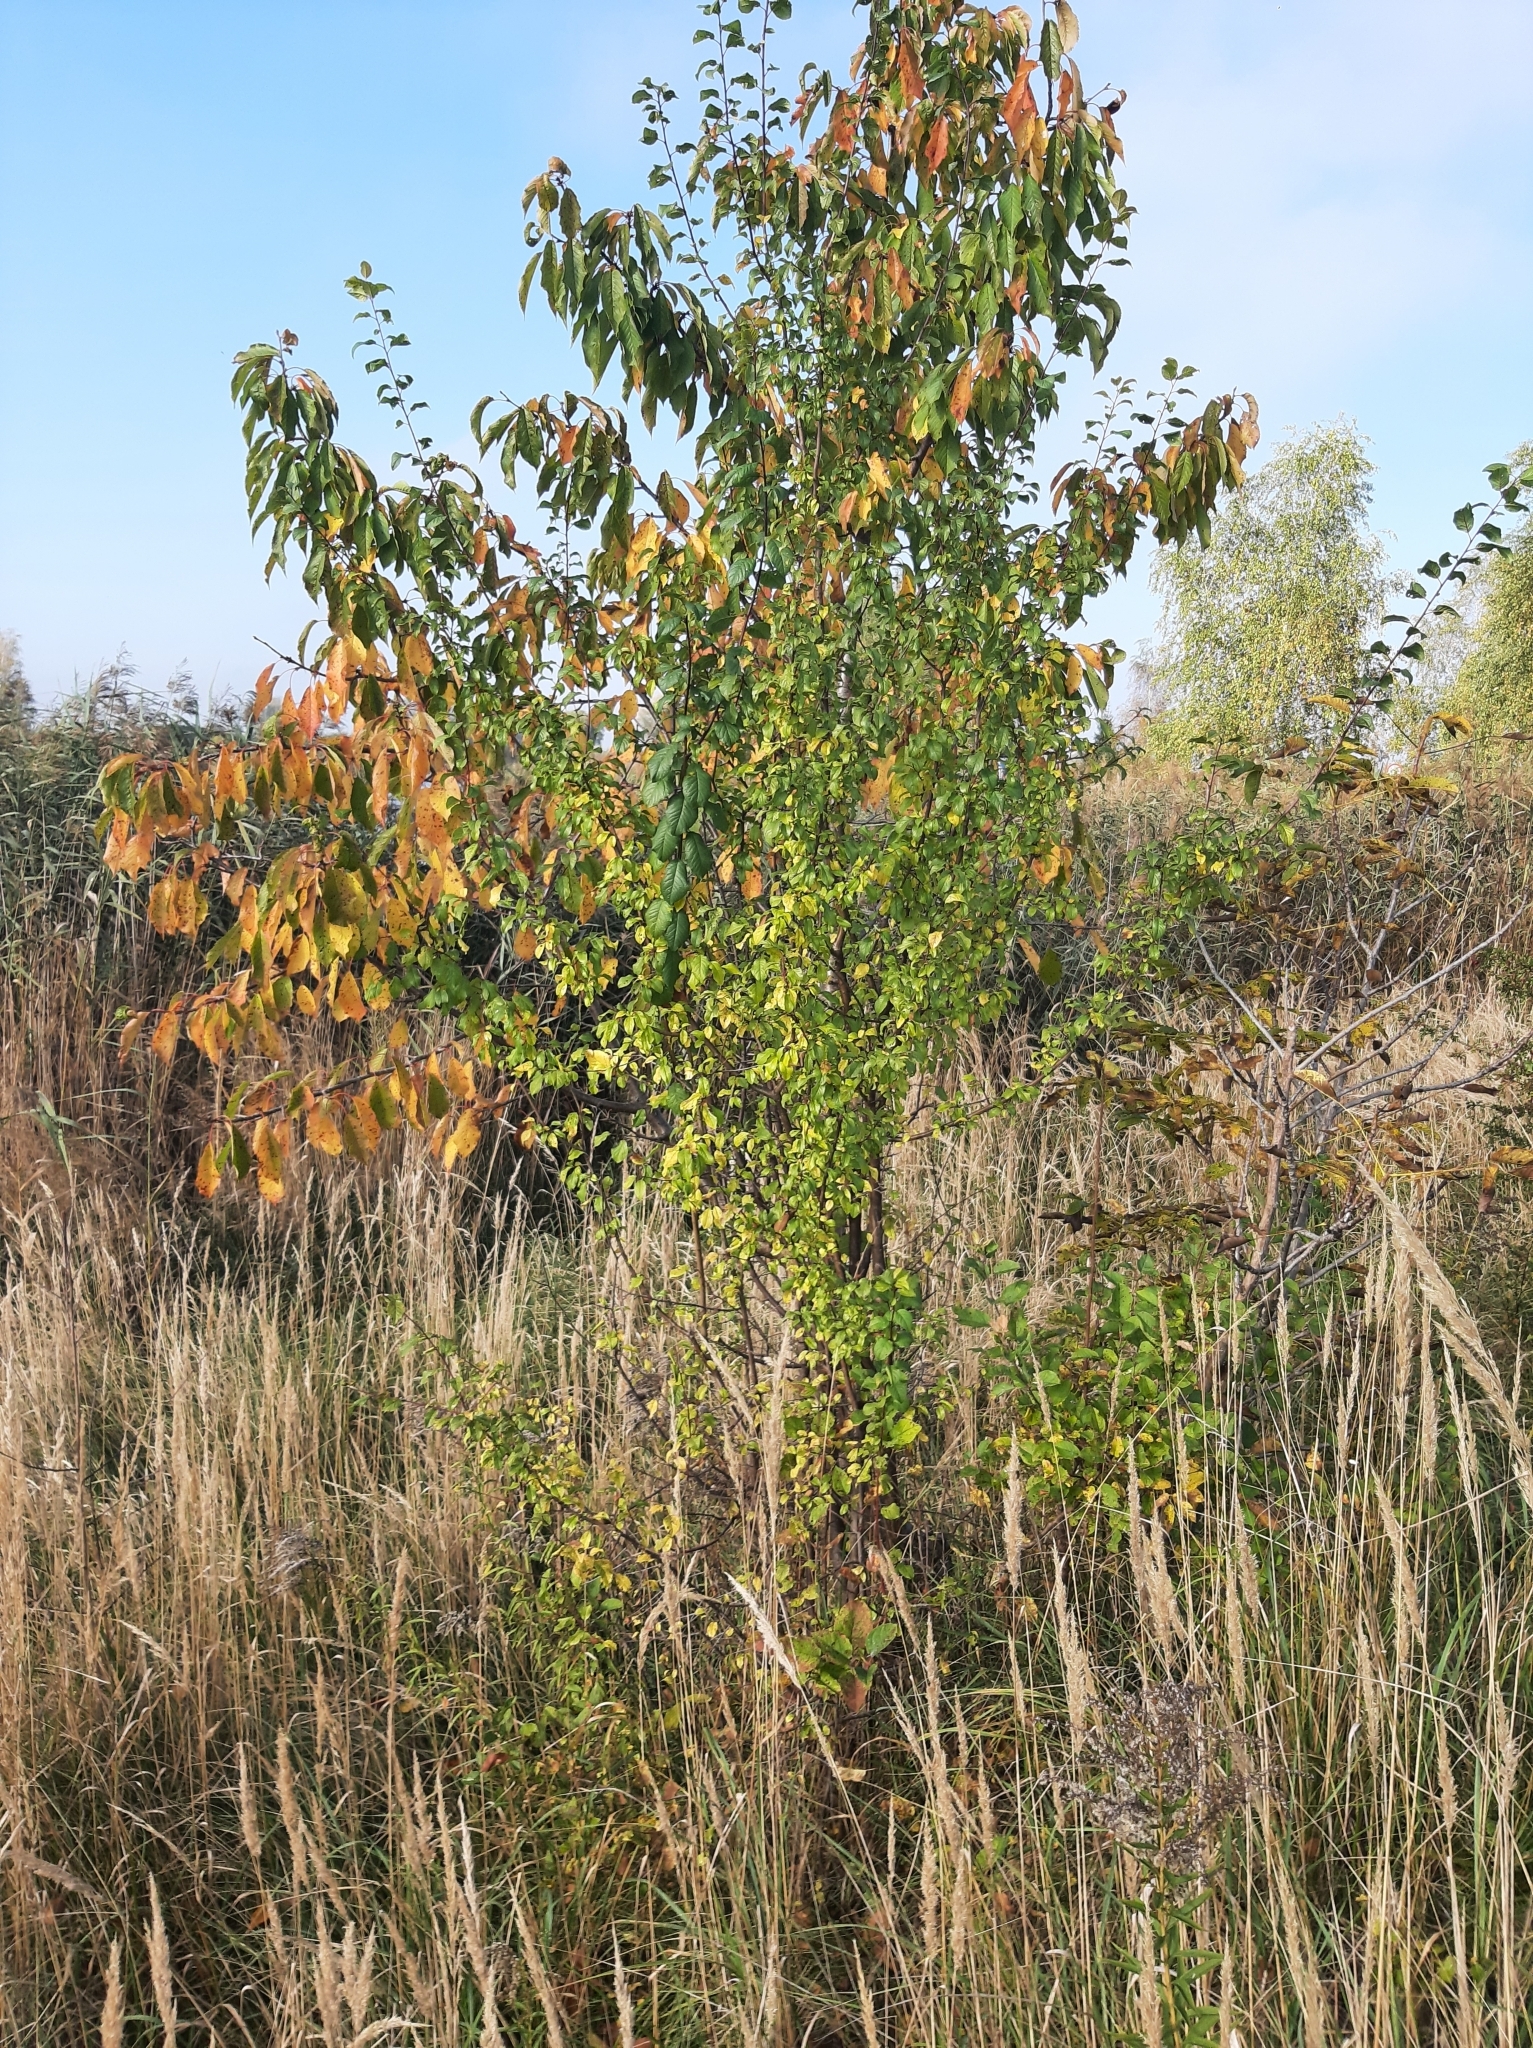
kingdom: Plantae
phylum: Tracheophyta
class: Liliopsida
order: Poales
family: Poaceae
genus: Calamagrostis
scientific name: Calamagrostis epigejos
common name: Wood small-reed
